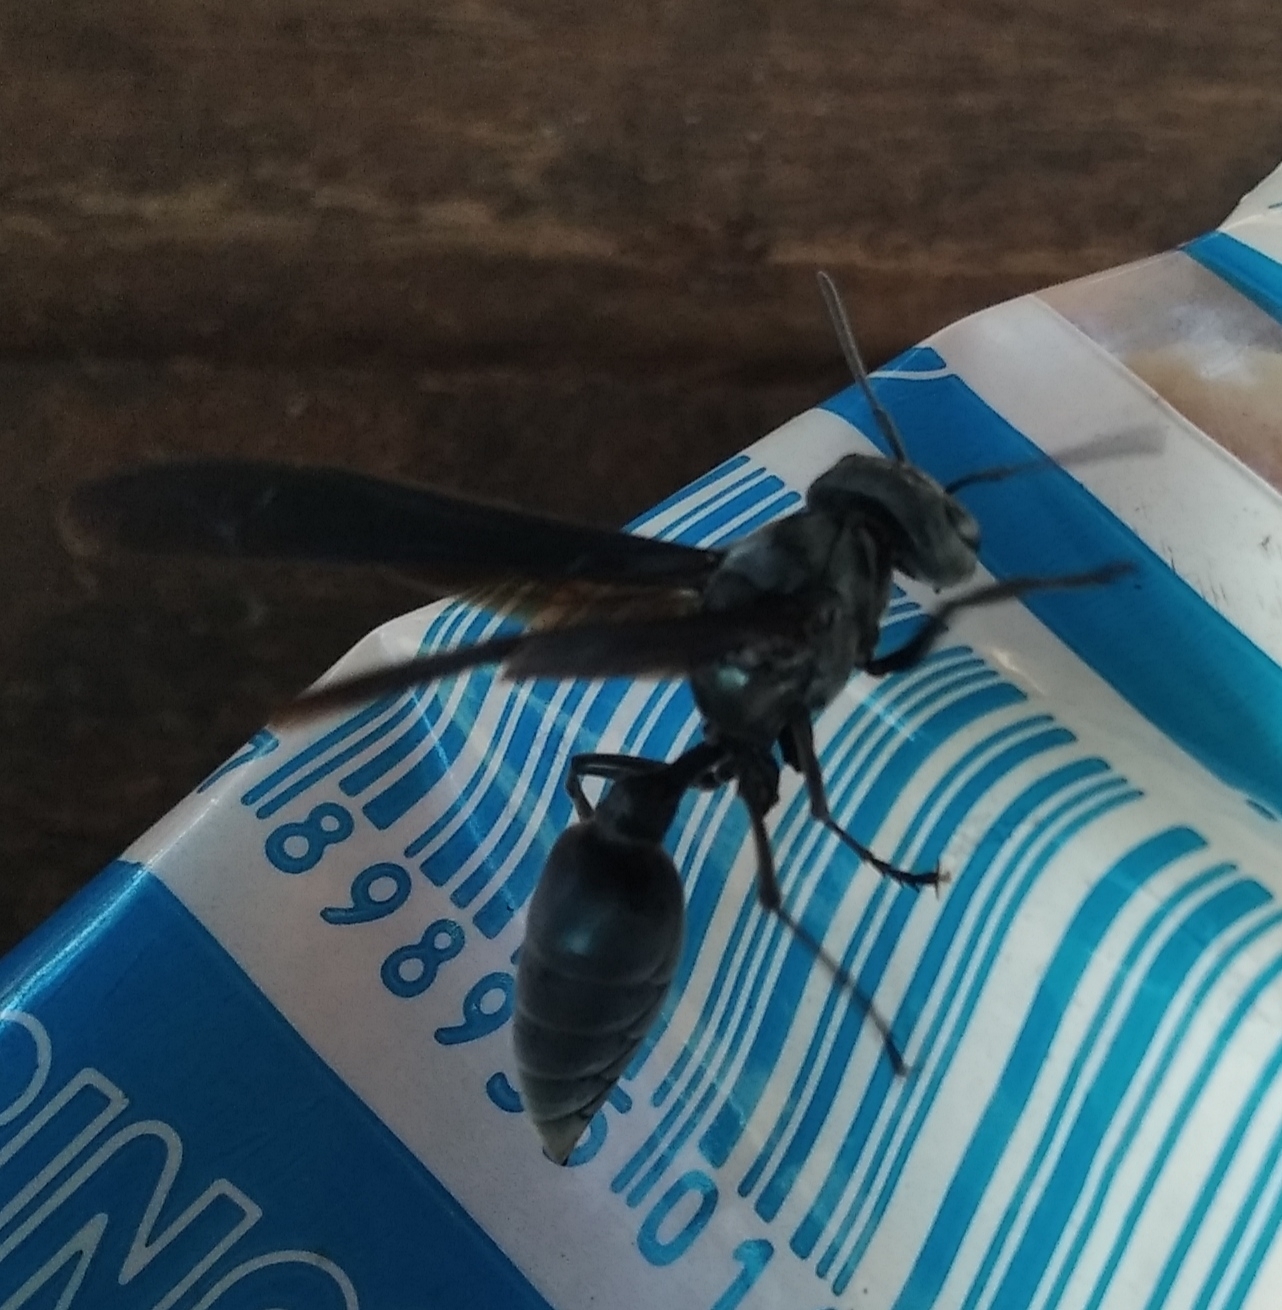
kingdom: Animalia
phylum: Arthropoda
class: Insecta
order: Hymenoptera
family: Vespidae
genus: Synoeca
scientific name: Synoeca surinama
